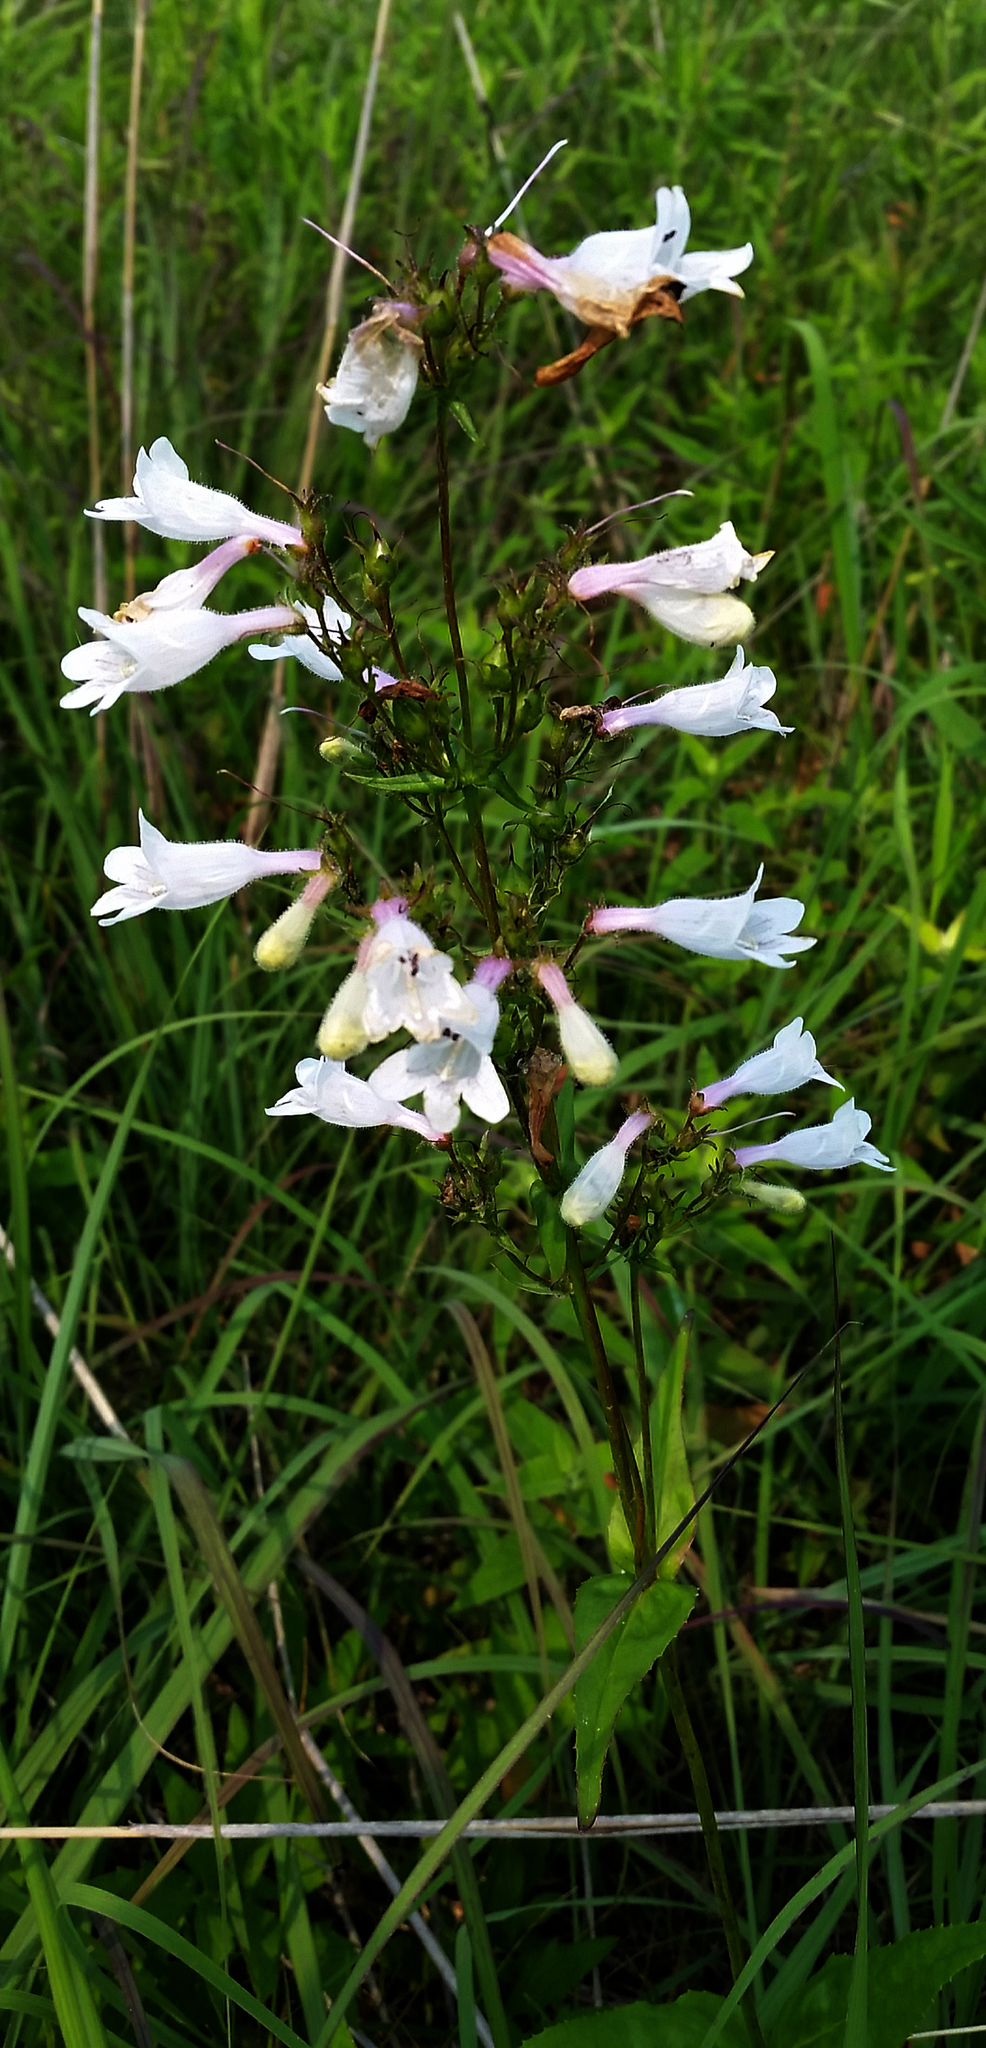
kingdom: Plantae
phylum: Tracheophyta
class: Magnoliopsida
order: Lamiales
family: Plantaginaceae
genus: Penstemon
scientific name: Penstemon digitalis
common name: Foxglove beardtongue
